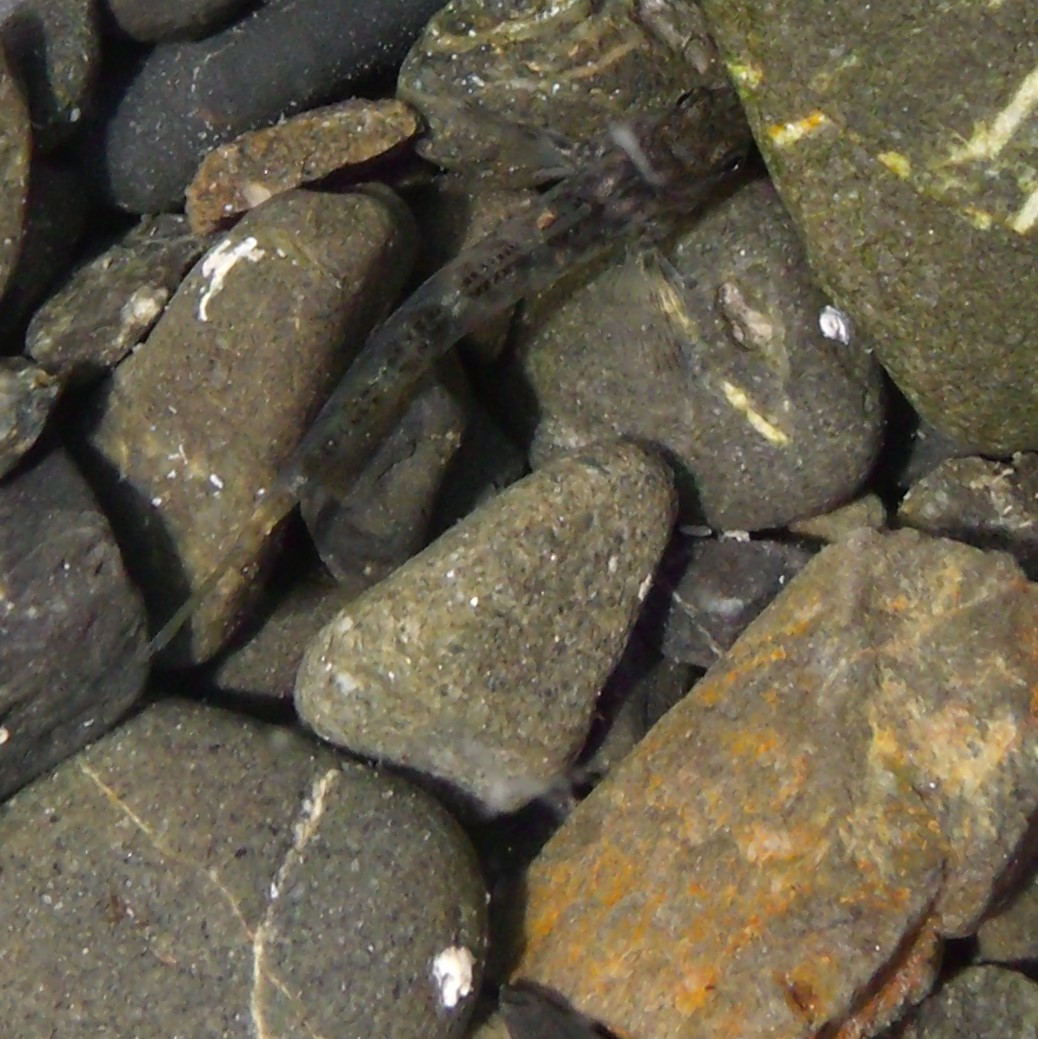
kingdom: Animalia
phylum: Chordata
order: Perciformes
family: Tripterygiidae
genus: Bellapiscis
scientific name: Bellapiscis medius
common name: Twister
